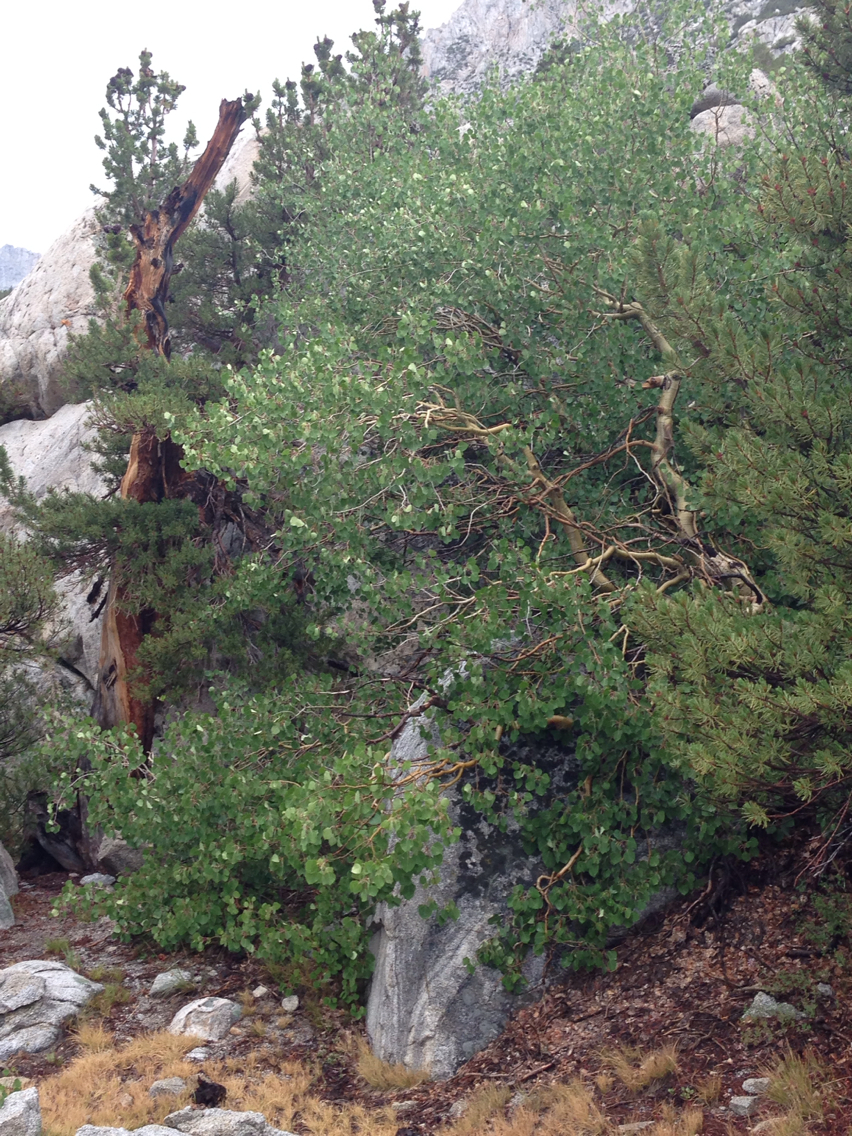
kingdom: Plantae
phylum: Tracheophyta
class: Magnoliopsida
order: Malpighiales
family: Salicaceae
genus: Populus
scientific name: Populus tremuloides
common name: Quaking aspen
